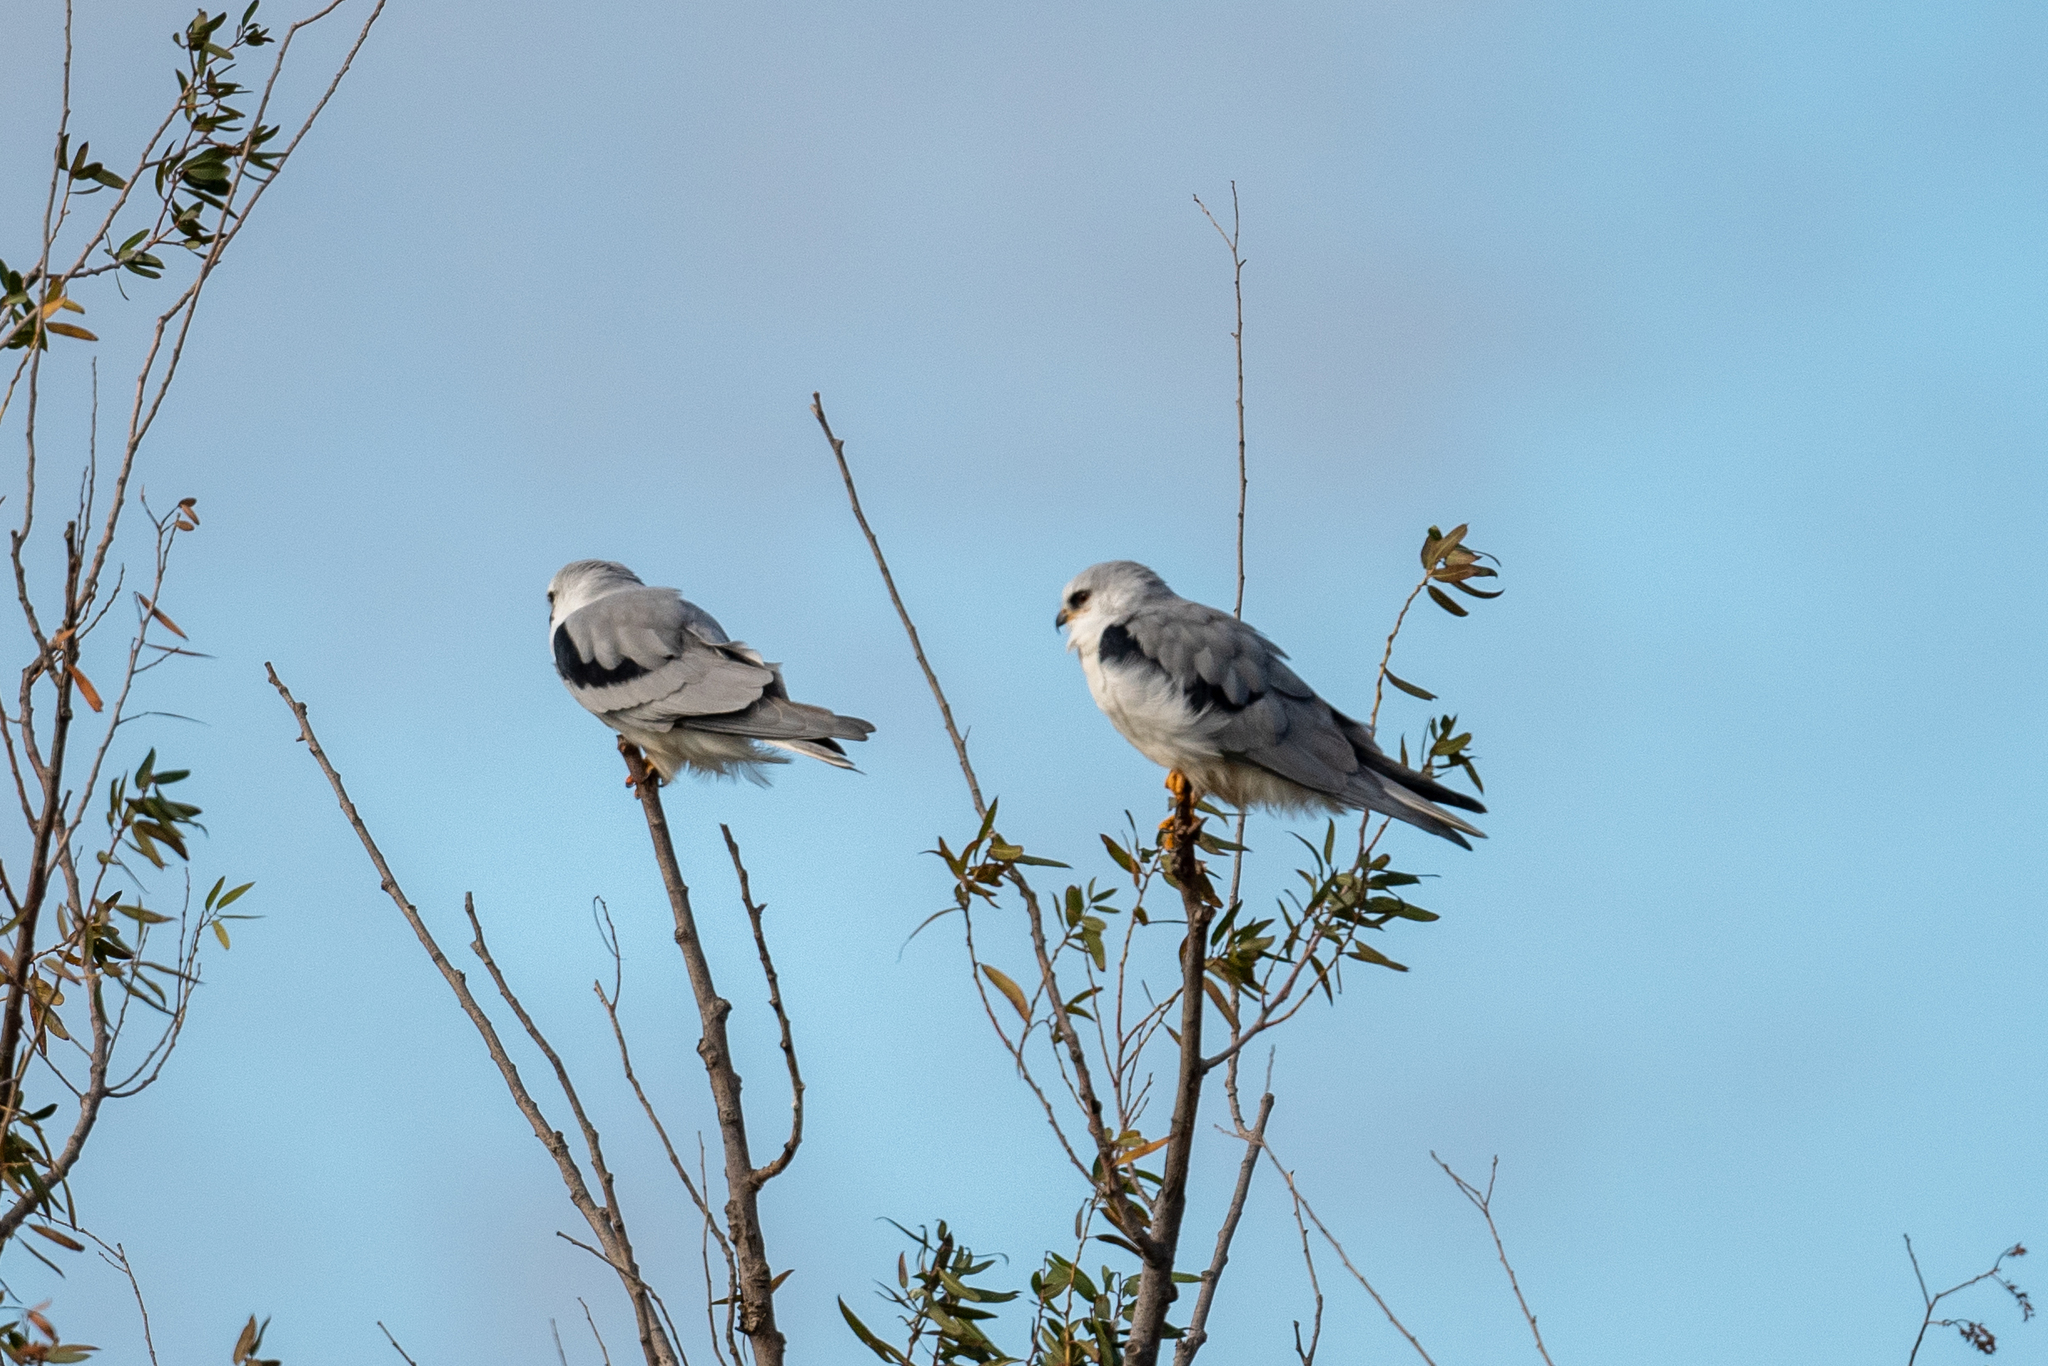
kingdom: Animalia
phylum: Chordata
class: Aves
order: Accipitriformes
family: Accipitridae
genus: Elanus
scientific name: Elanus leucurus
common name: White-tailed kite
